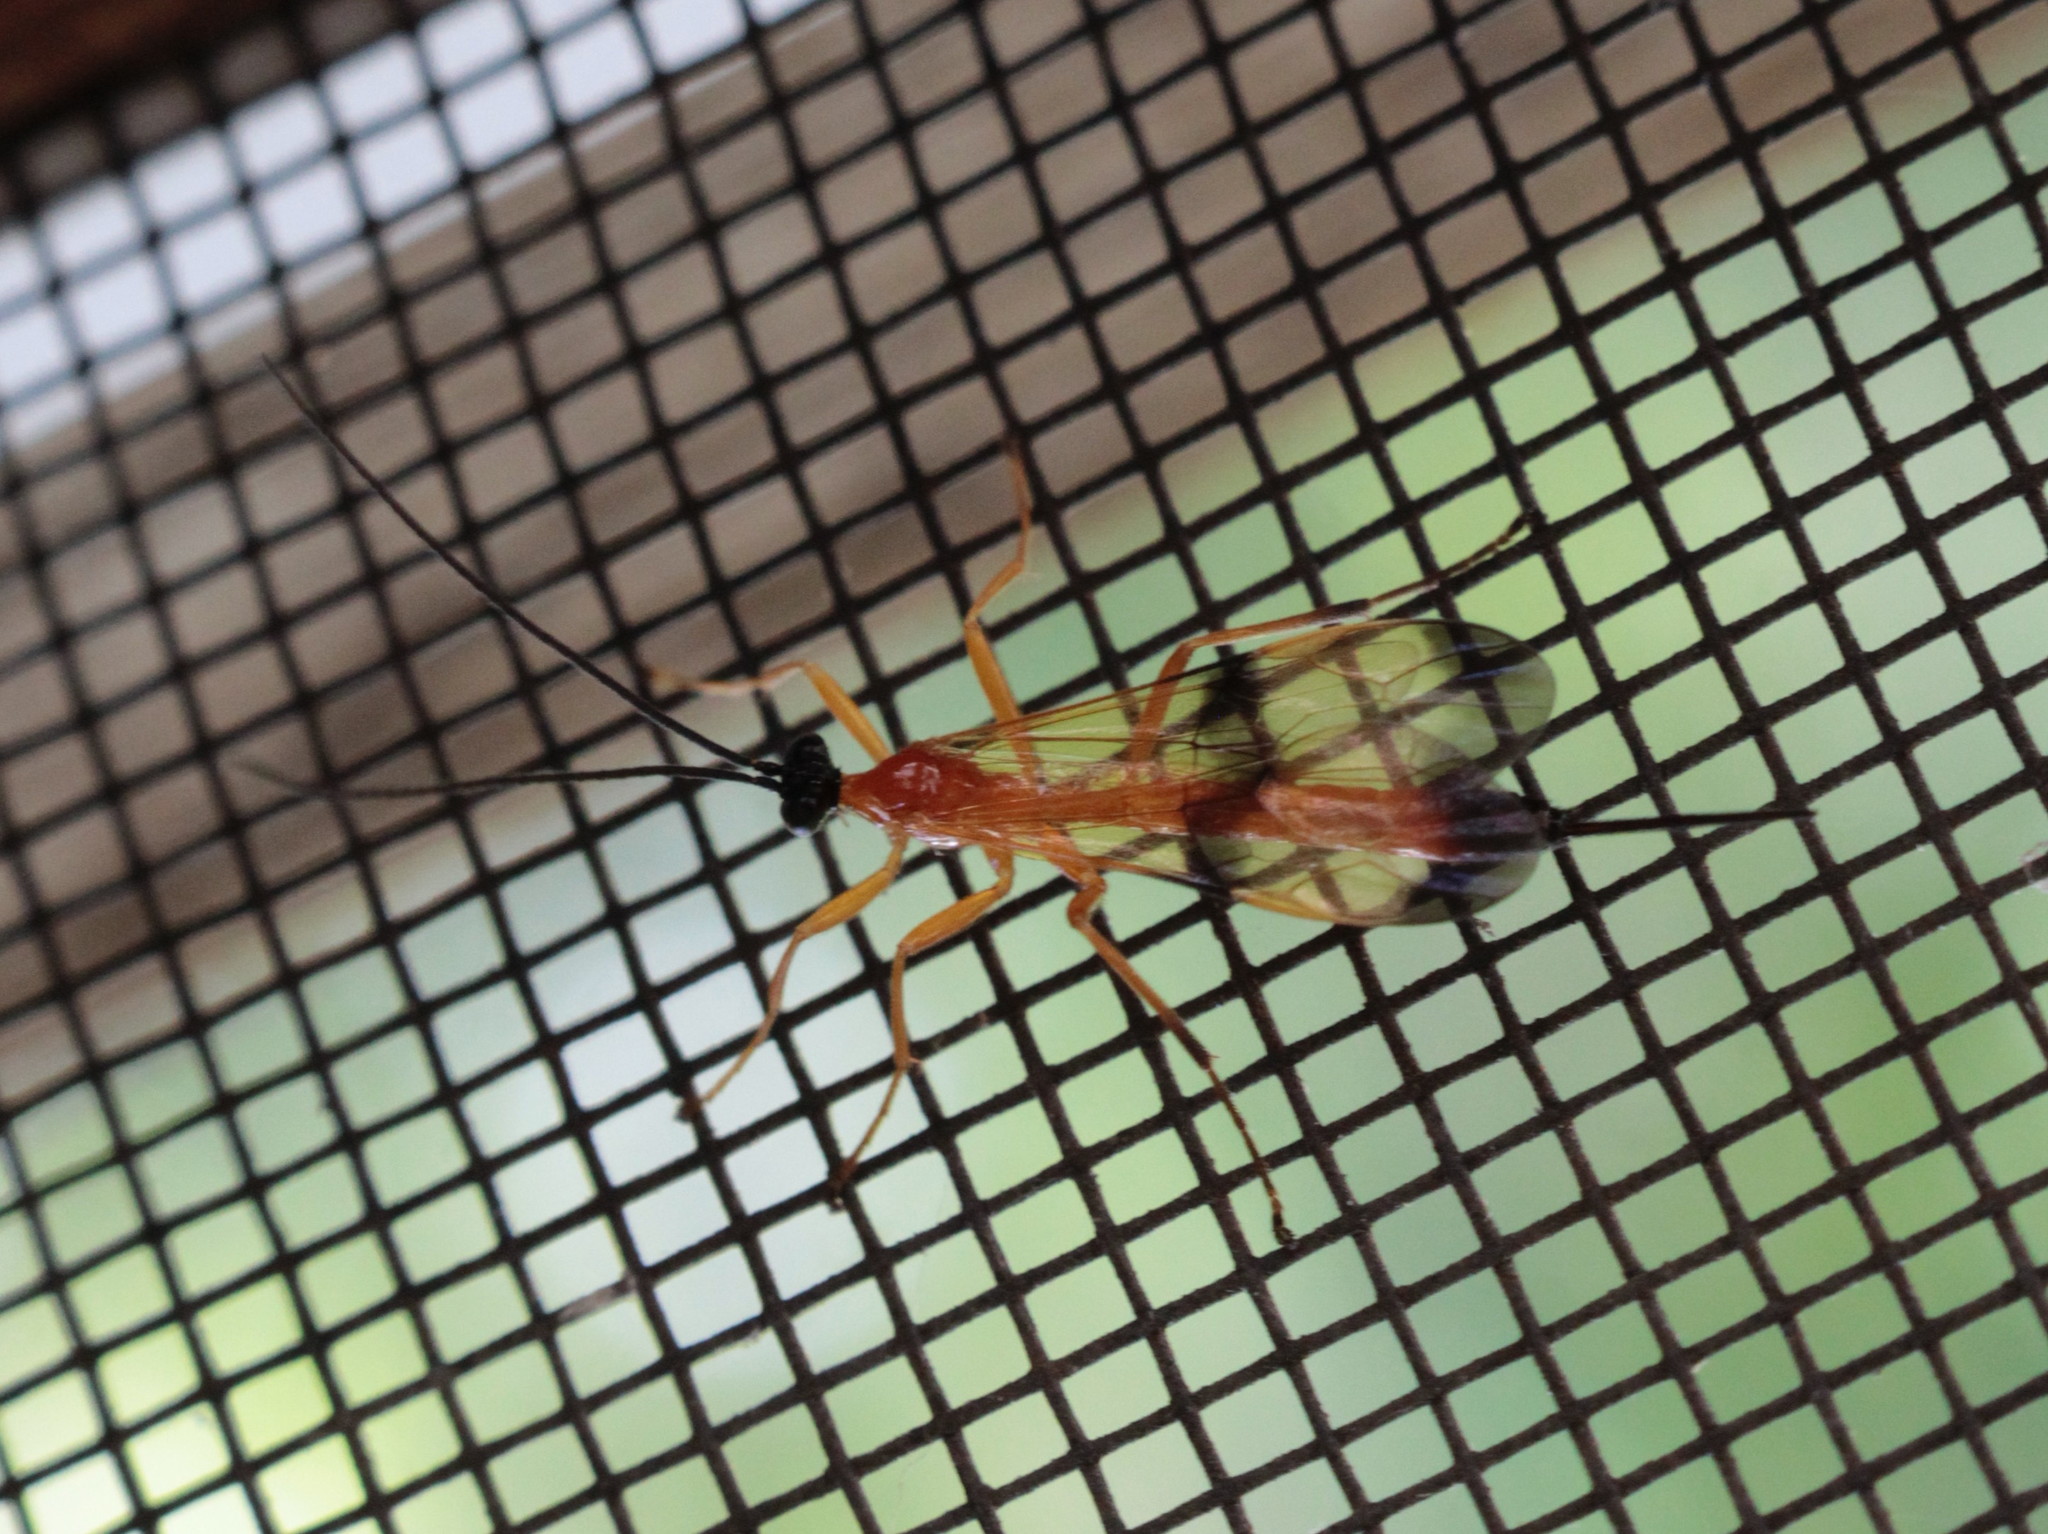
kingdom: Animalia
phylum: Arthropoda
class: Insecta
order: Hymenoptera
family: Ichneumonidae
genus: Acrotaphus
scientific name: Acrotaphus wiltii
